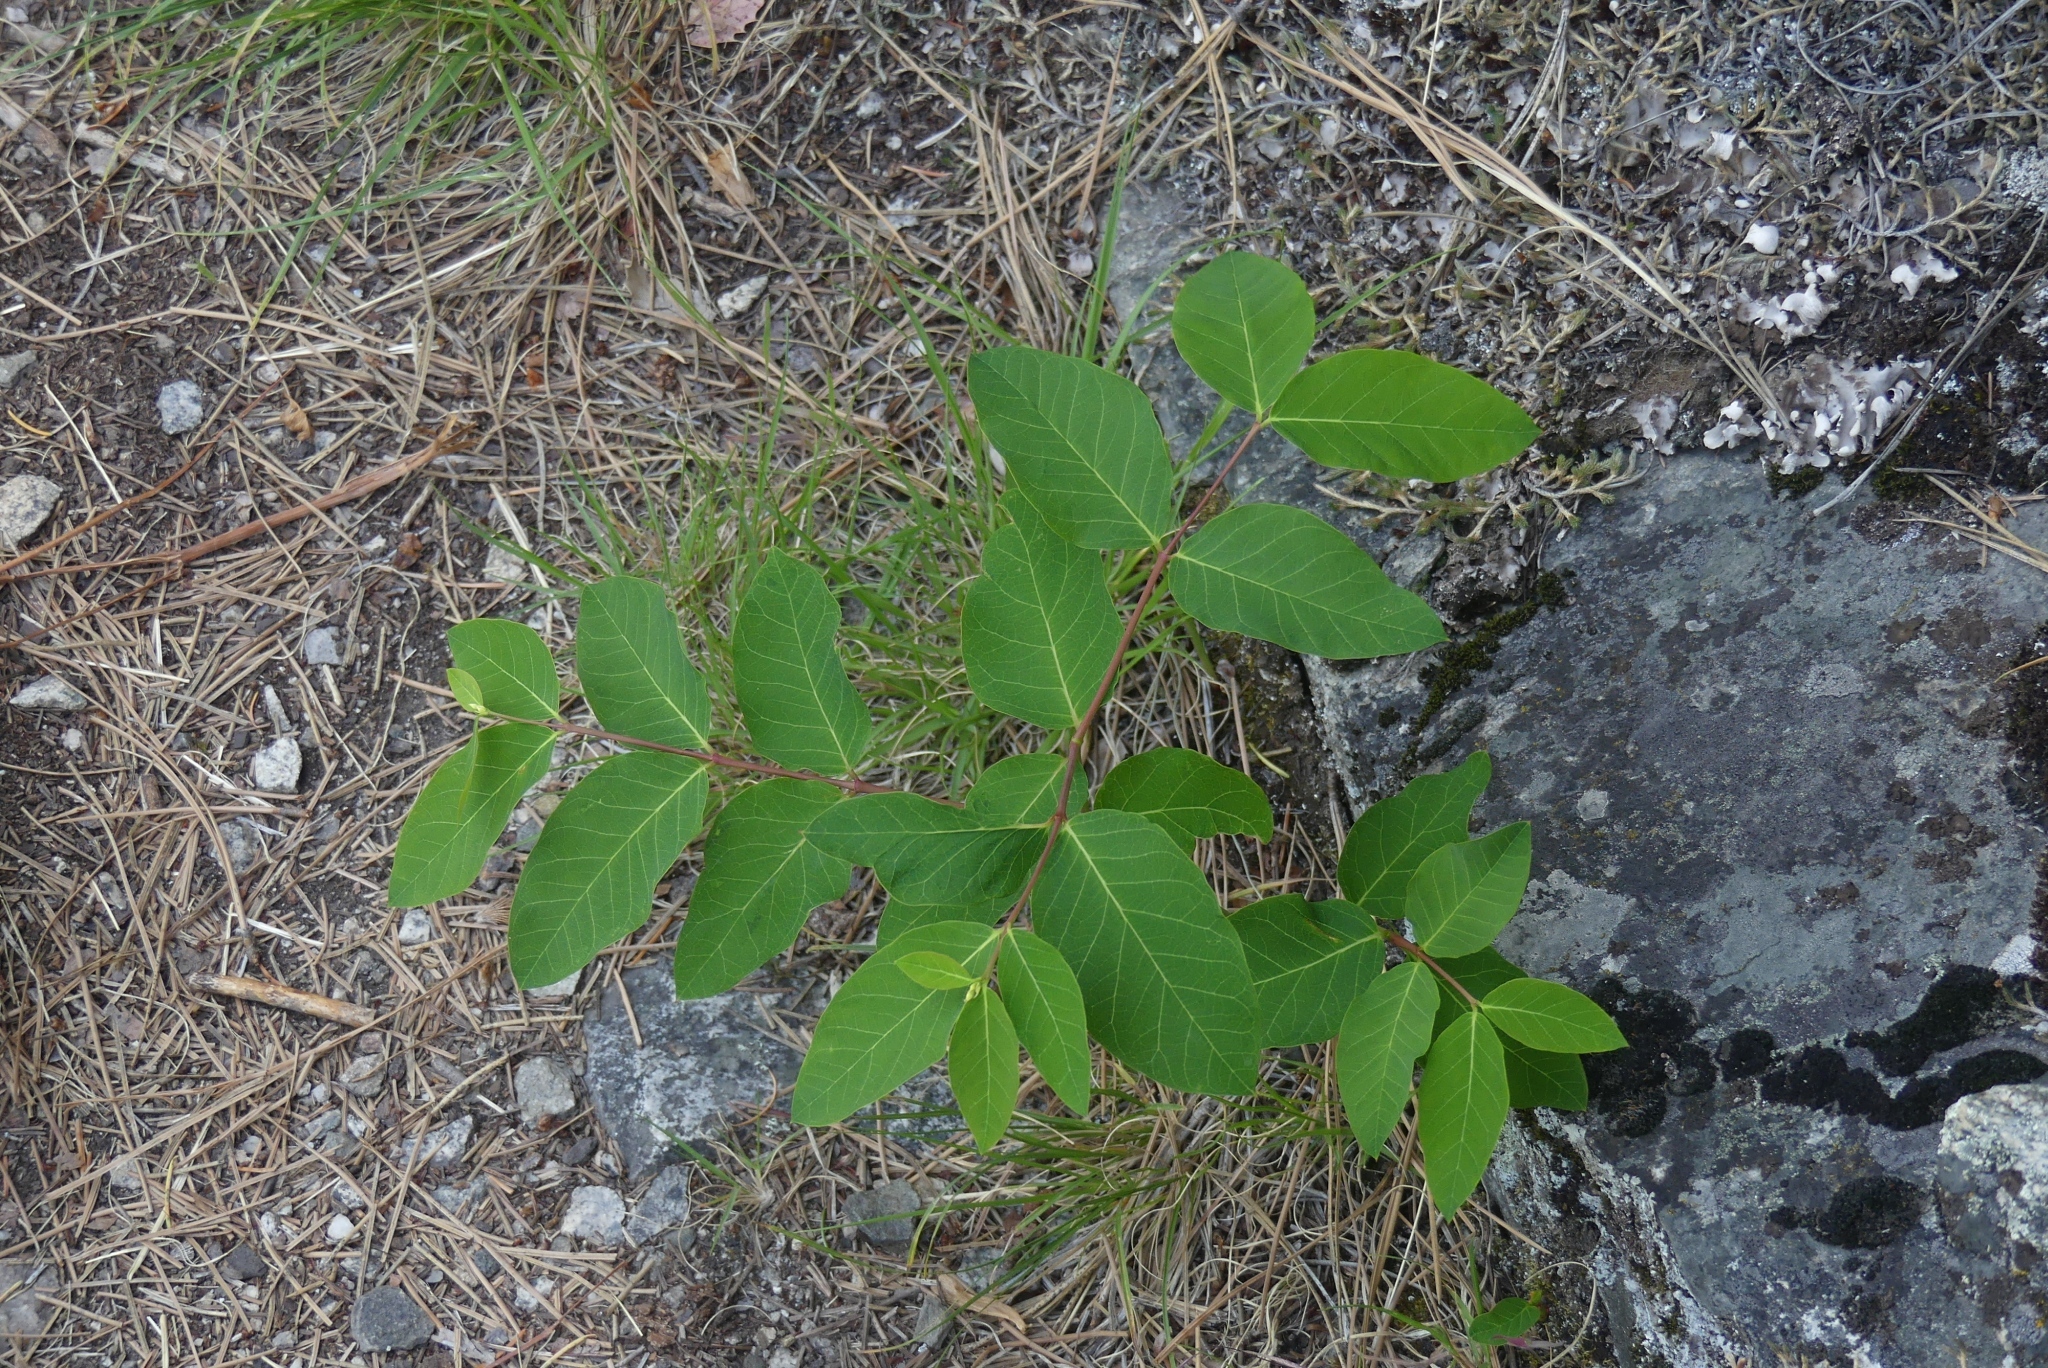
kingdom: Plantae
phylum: Tracheophyta
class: Magnoliopsida
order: Gentianales
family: Apocynaceae
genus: Apocynum
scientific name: Apocynum androsaemifolium
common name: Spreading dogbane
